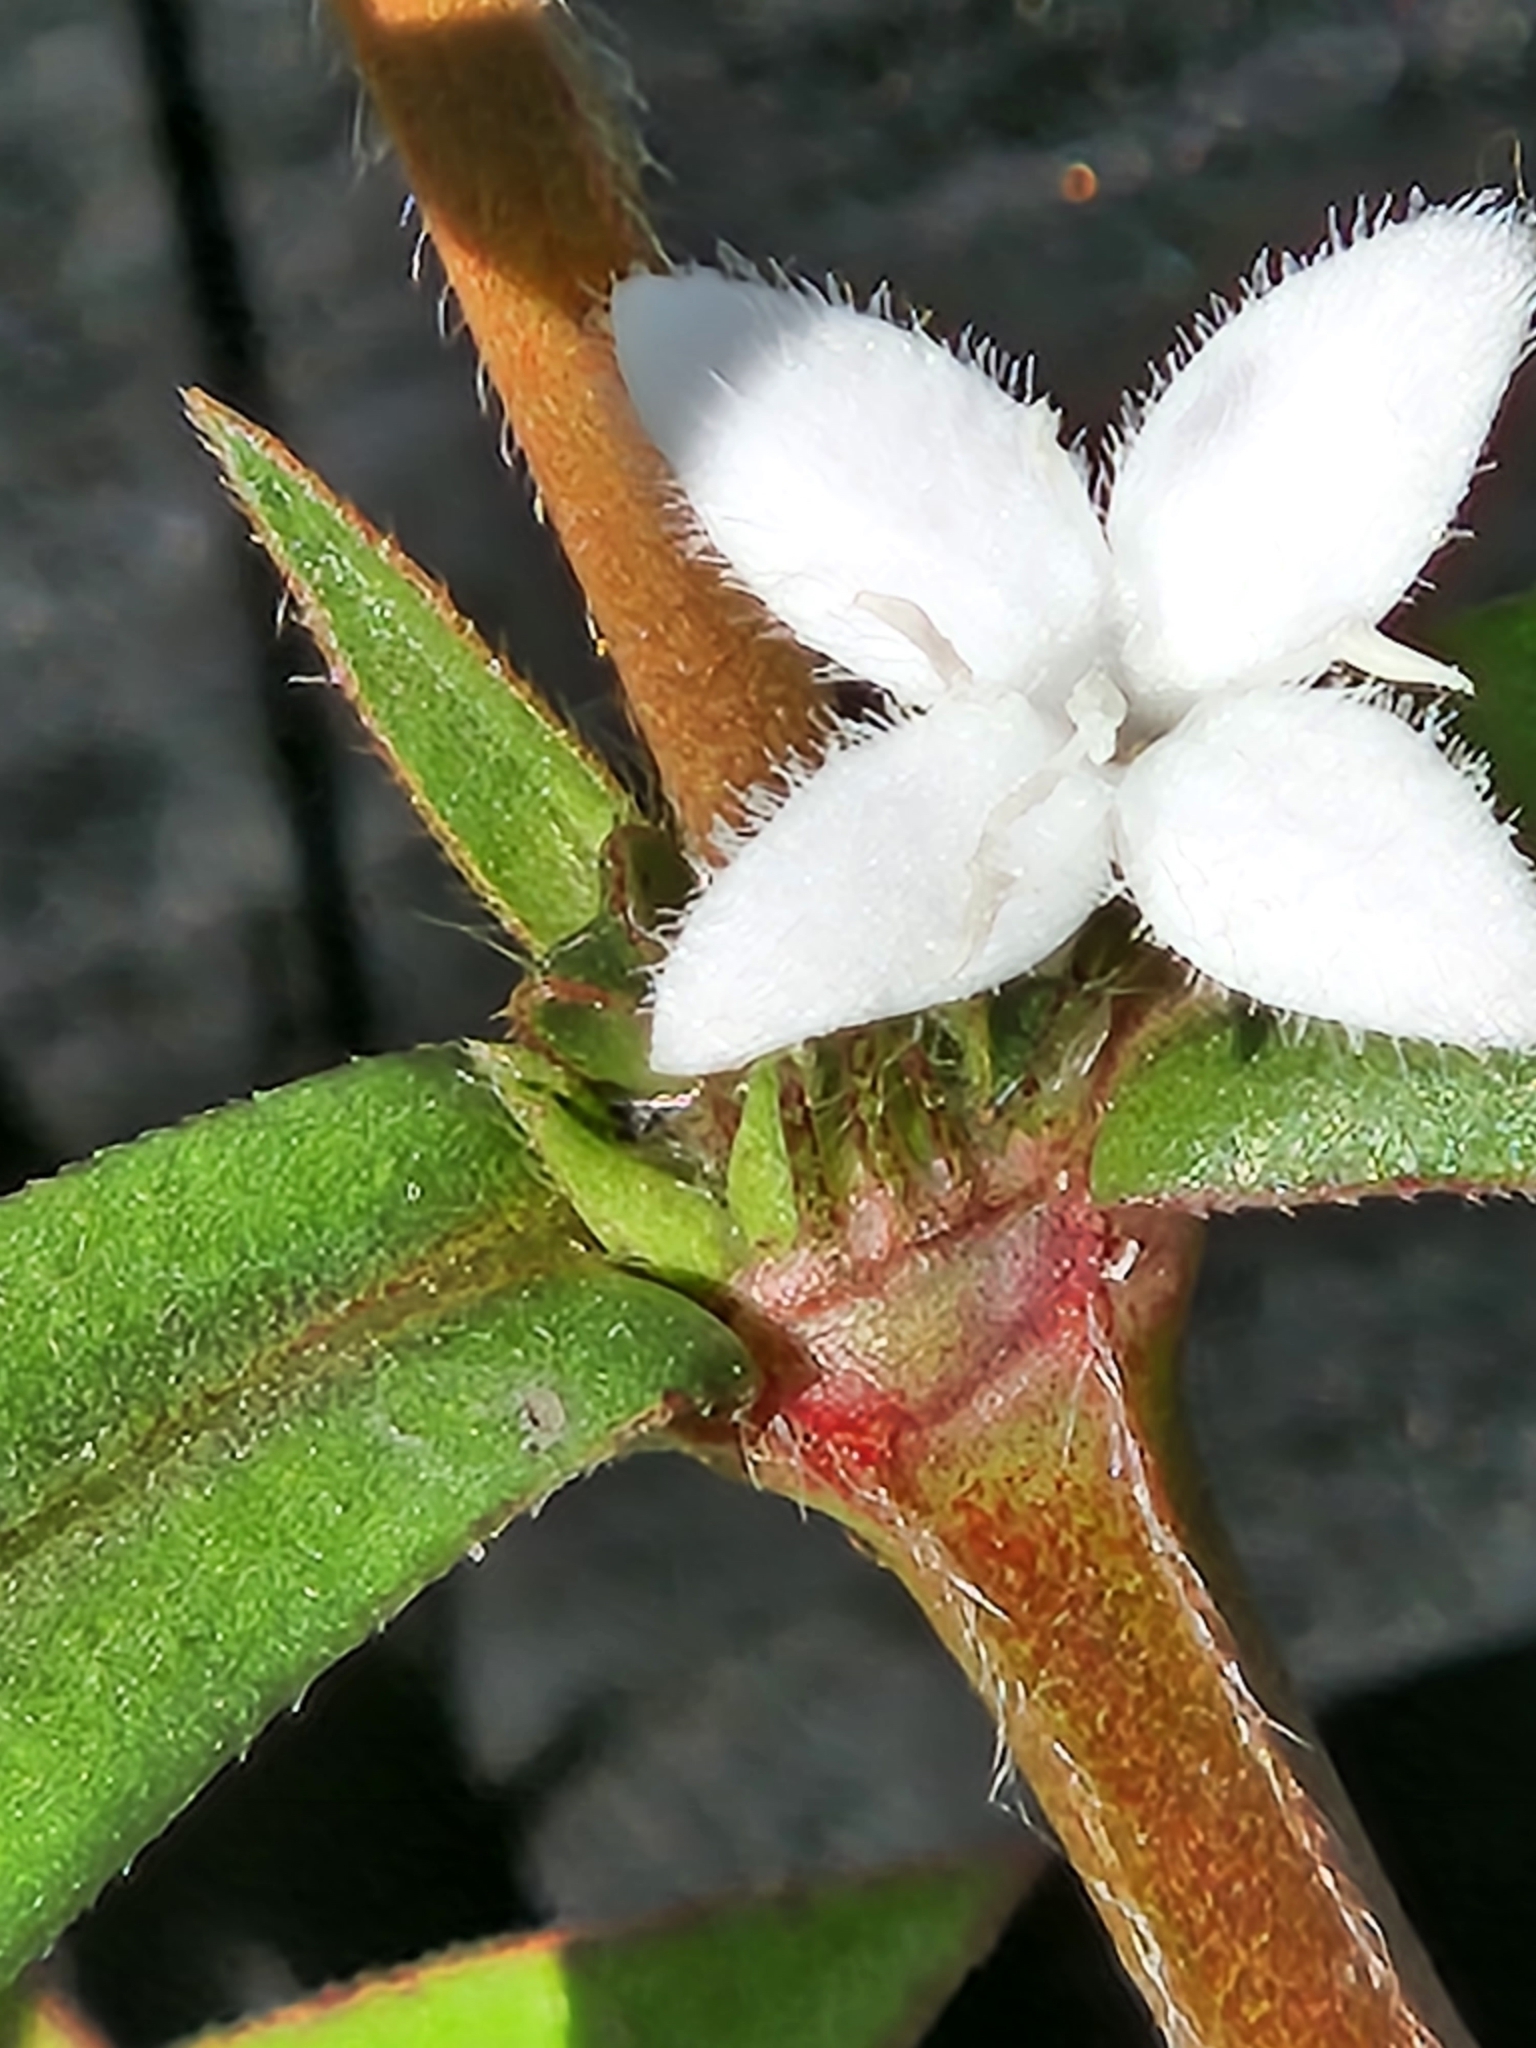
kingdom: Plantae
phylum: Tracheophyta
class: Magnoliopsida
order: Gentianales
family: Rubiaceae
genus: Diodia
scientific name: Diodia virginiana
